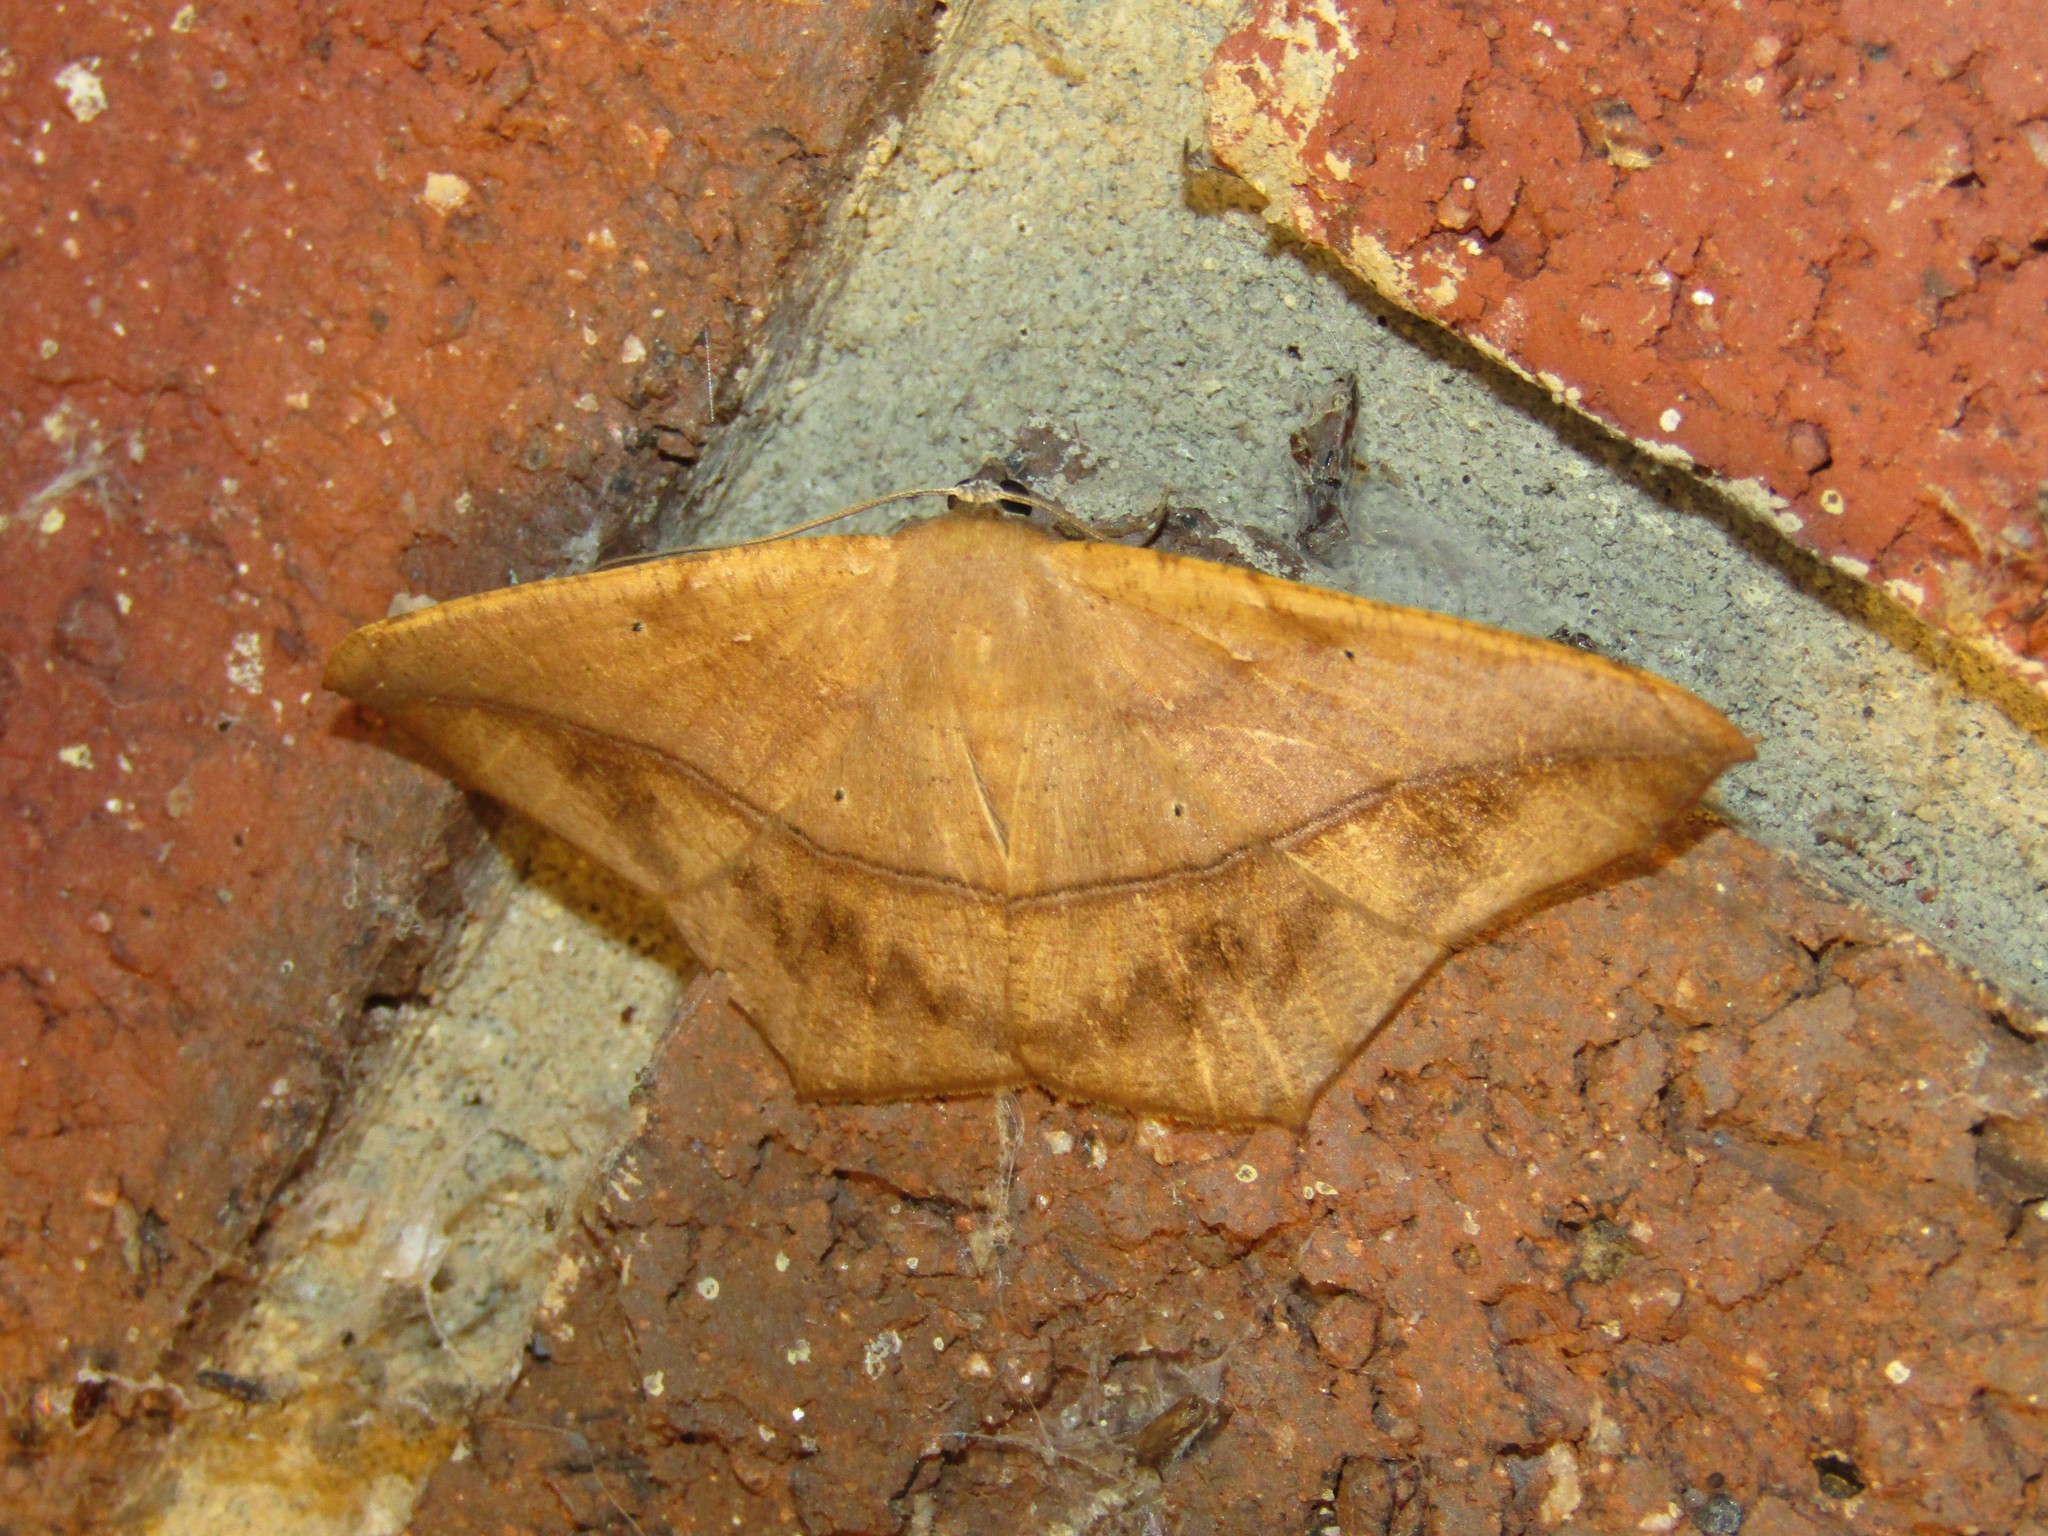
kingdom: Animalia
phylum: Arthropoda
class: Insecta
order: Lepidoptera
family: Geometridae
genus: Prochoerodes
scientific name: Prochoerodes lineola
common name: Large maple spanworm
